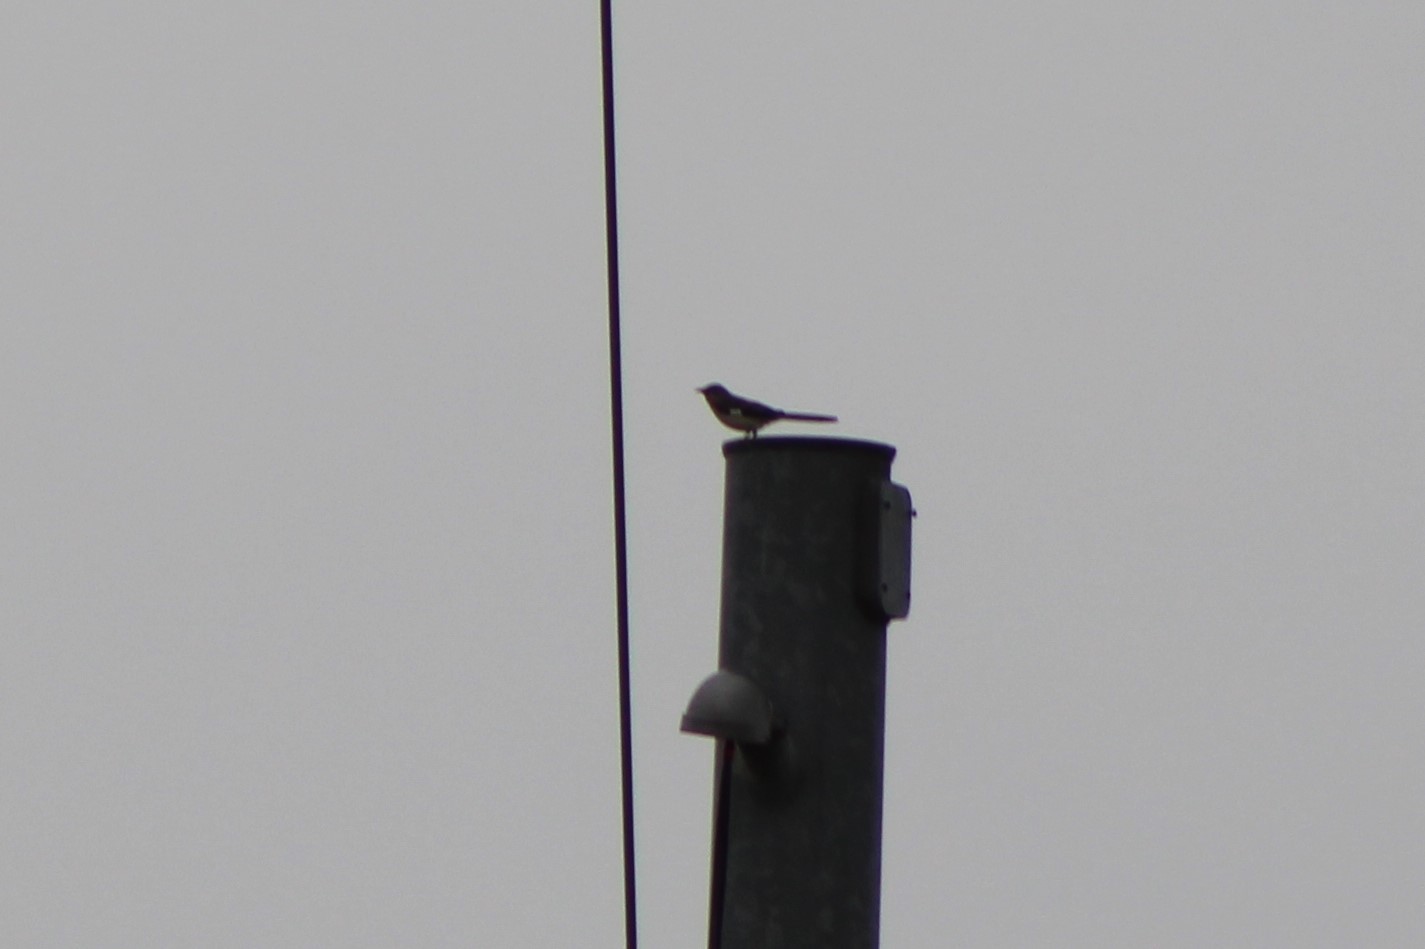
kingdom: Animalia
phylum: Chordata
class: Aves
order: Passeriformes
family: Mimidae
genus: Mimus
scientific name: Mimus polyglottos
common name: Northern mockingbird
